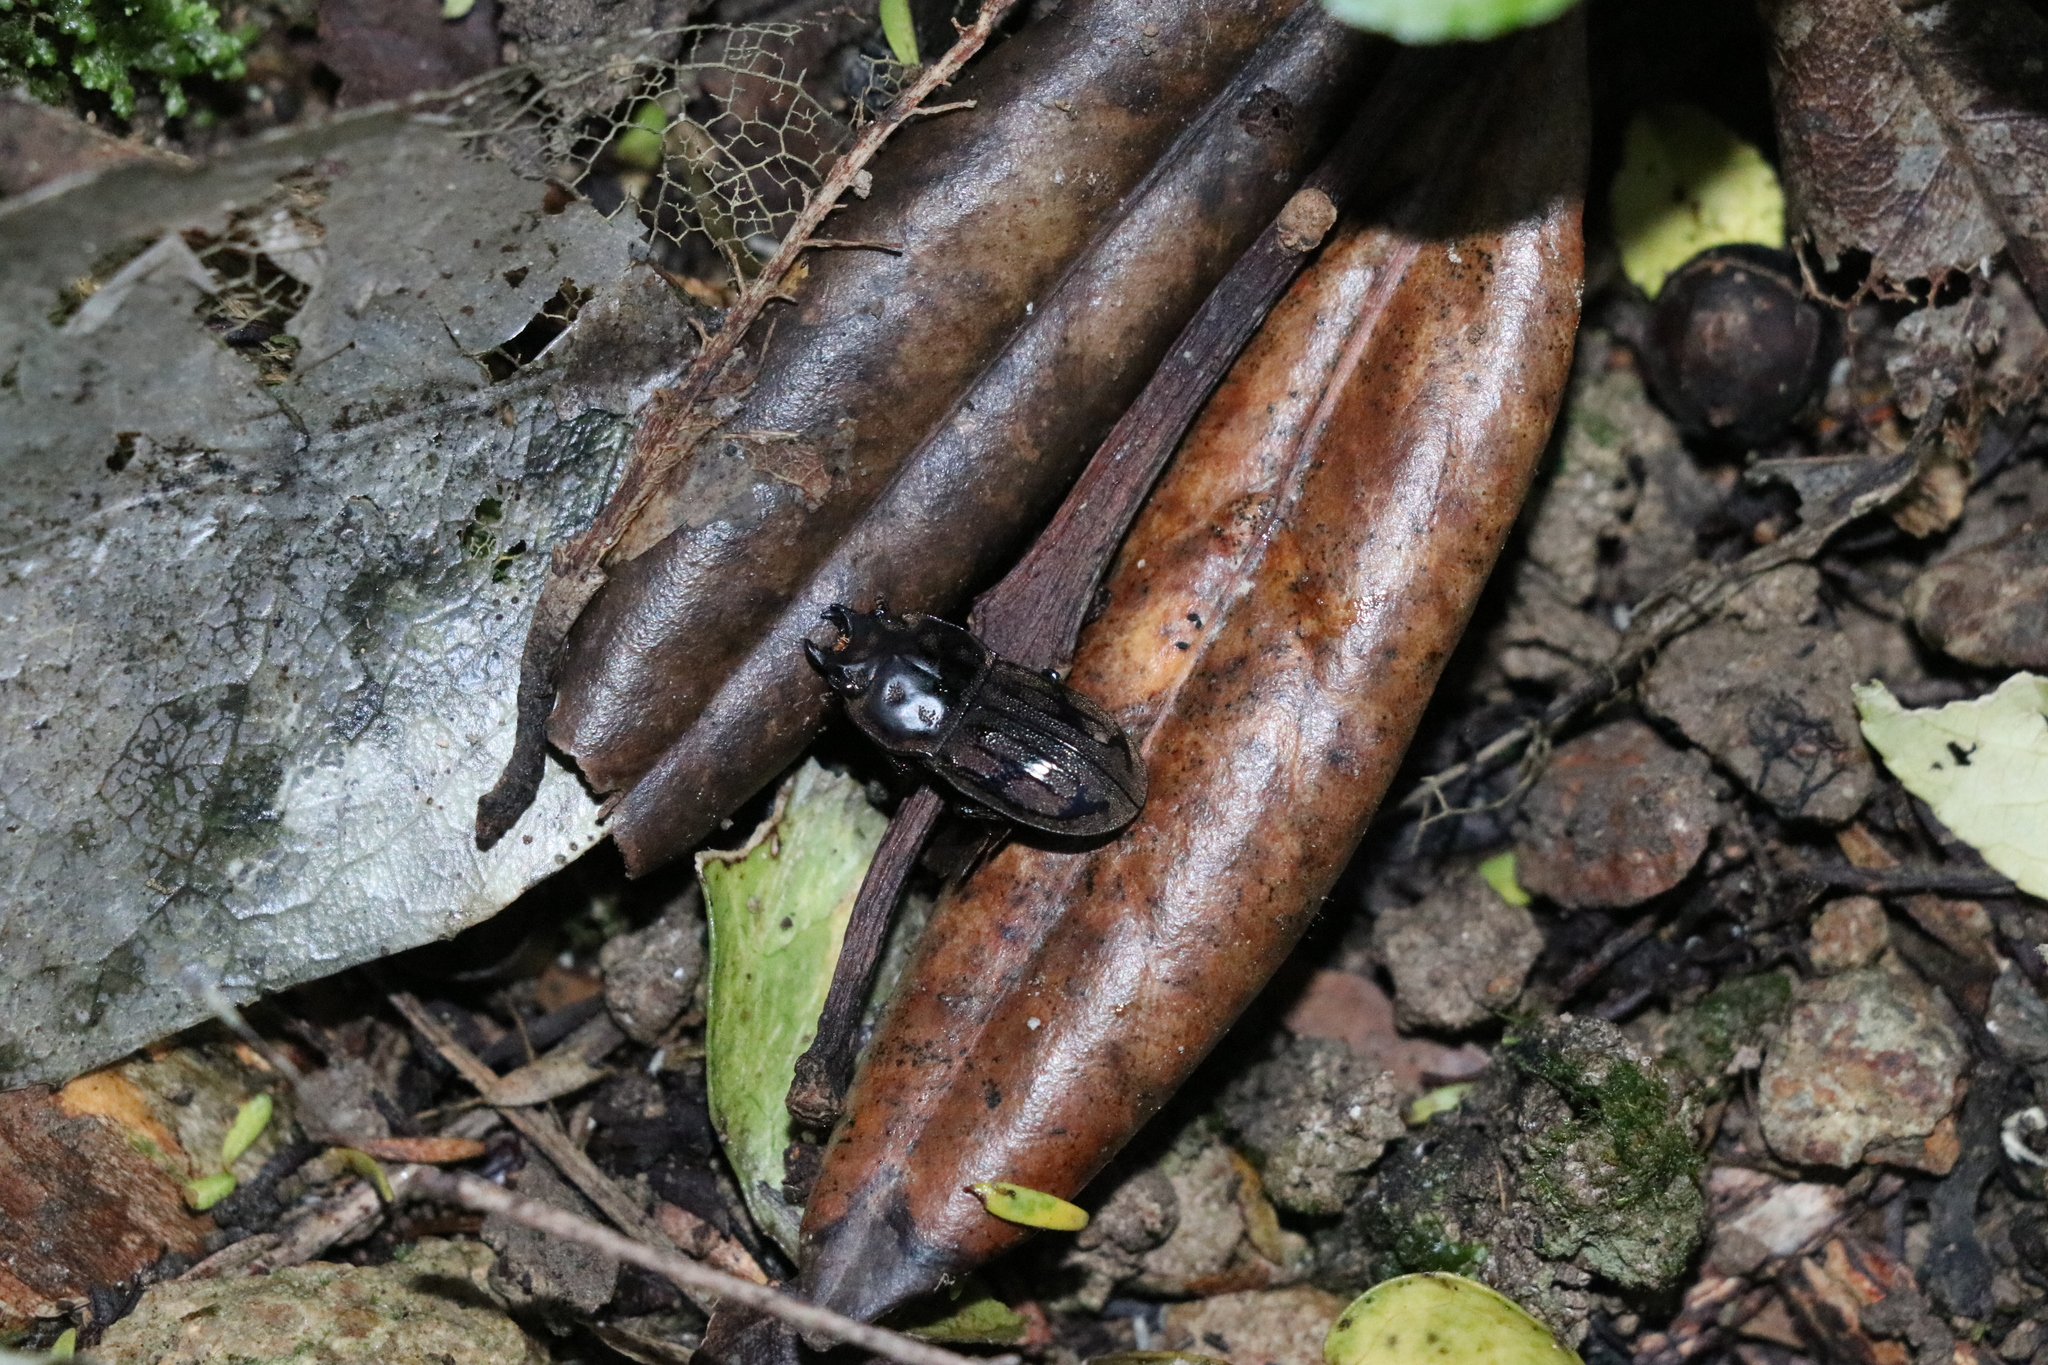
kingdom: Animalia
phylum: Arthropoda
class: Insecta
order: Coleoptera
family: Lucanidae
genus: Paralissotes
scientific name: Paralissotes reticulatus
